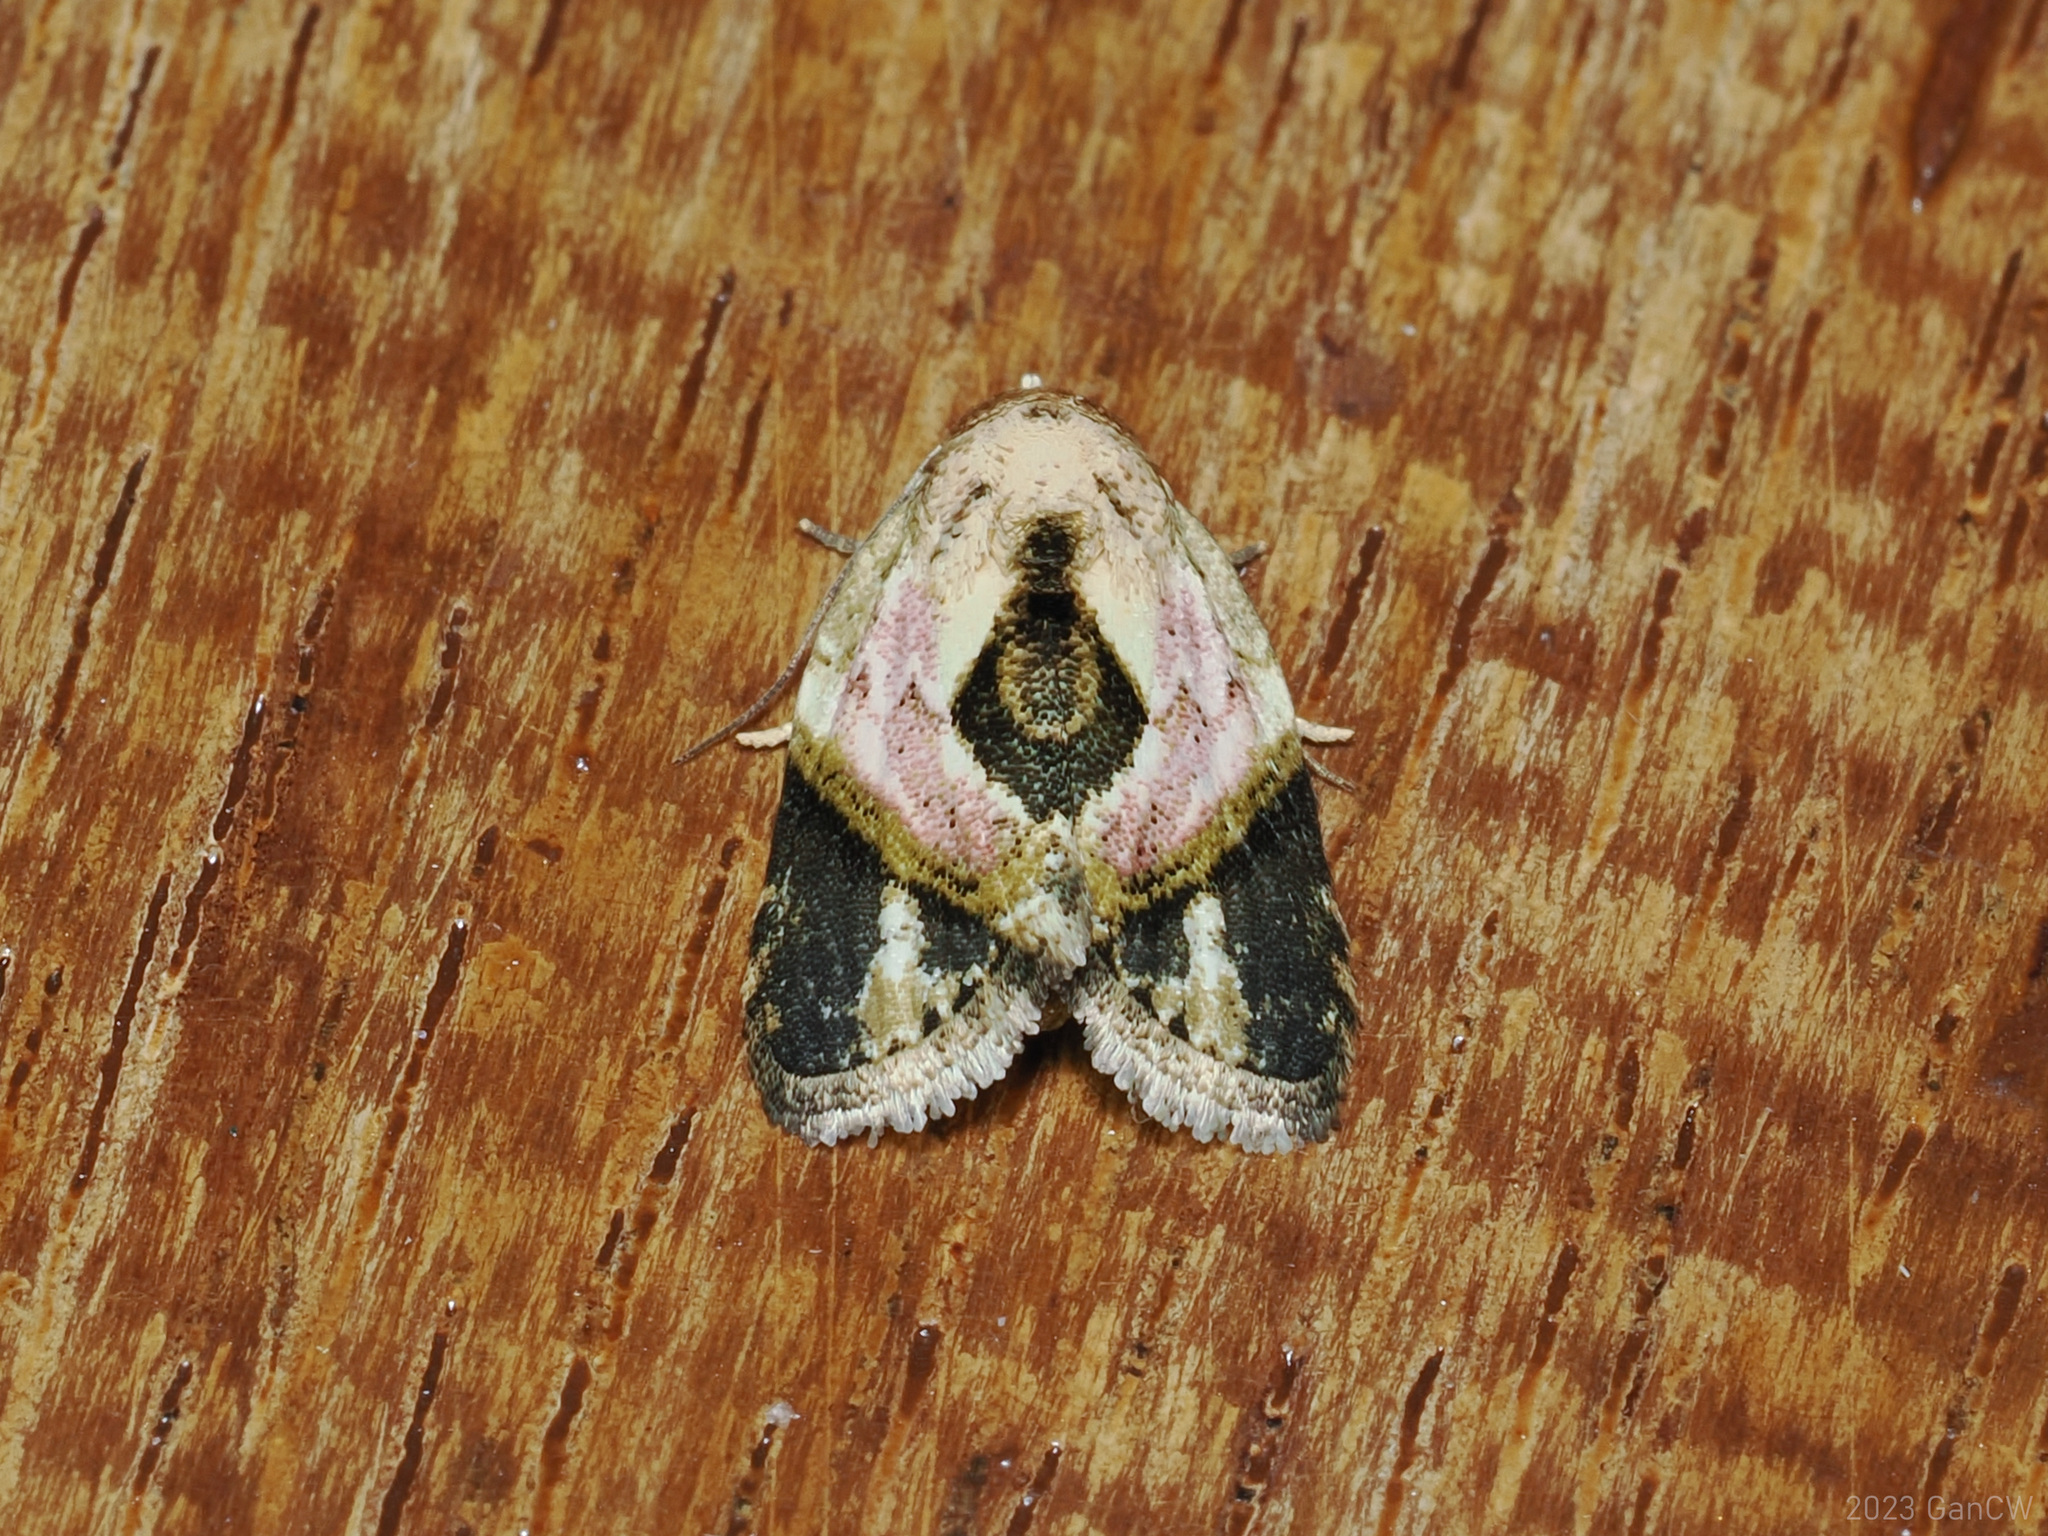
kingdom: Animalia
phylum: Arthropoda
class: Insecta
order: Lepidoptera
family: Nolidae
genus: Giaura
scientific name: Giaura niveidisca
